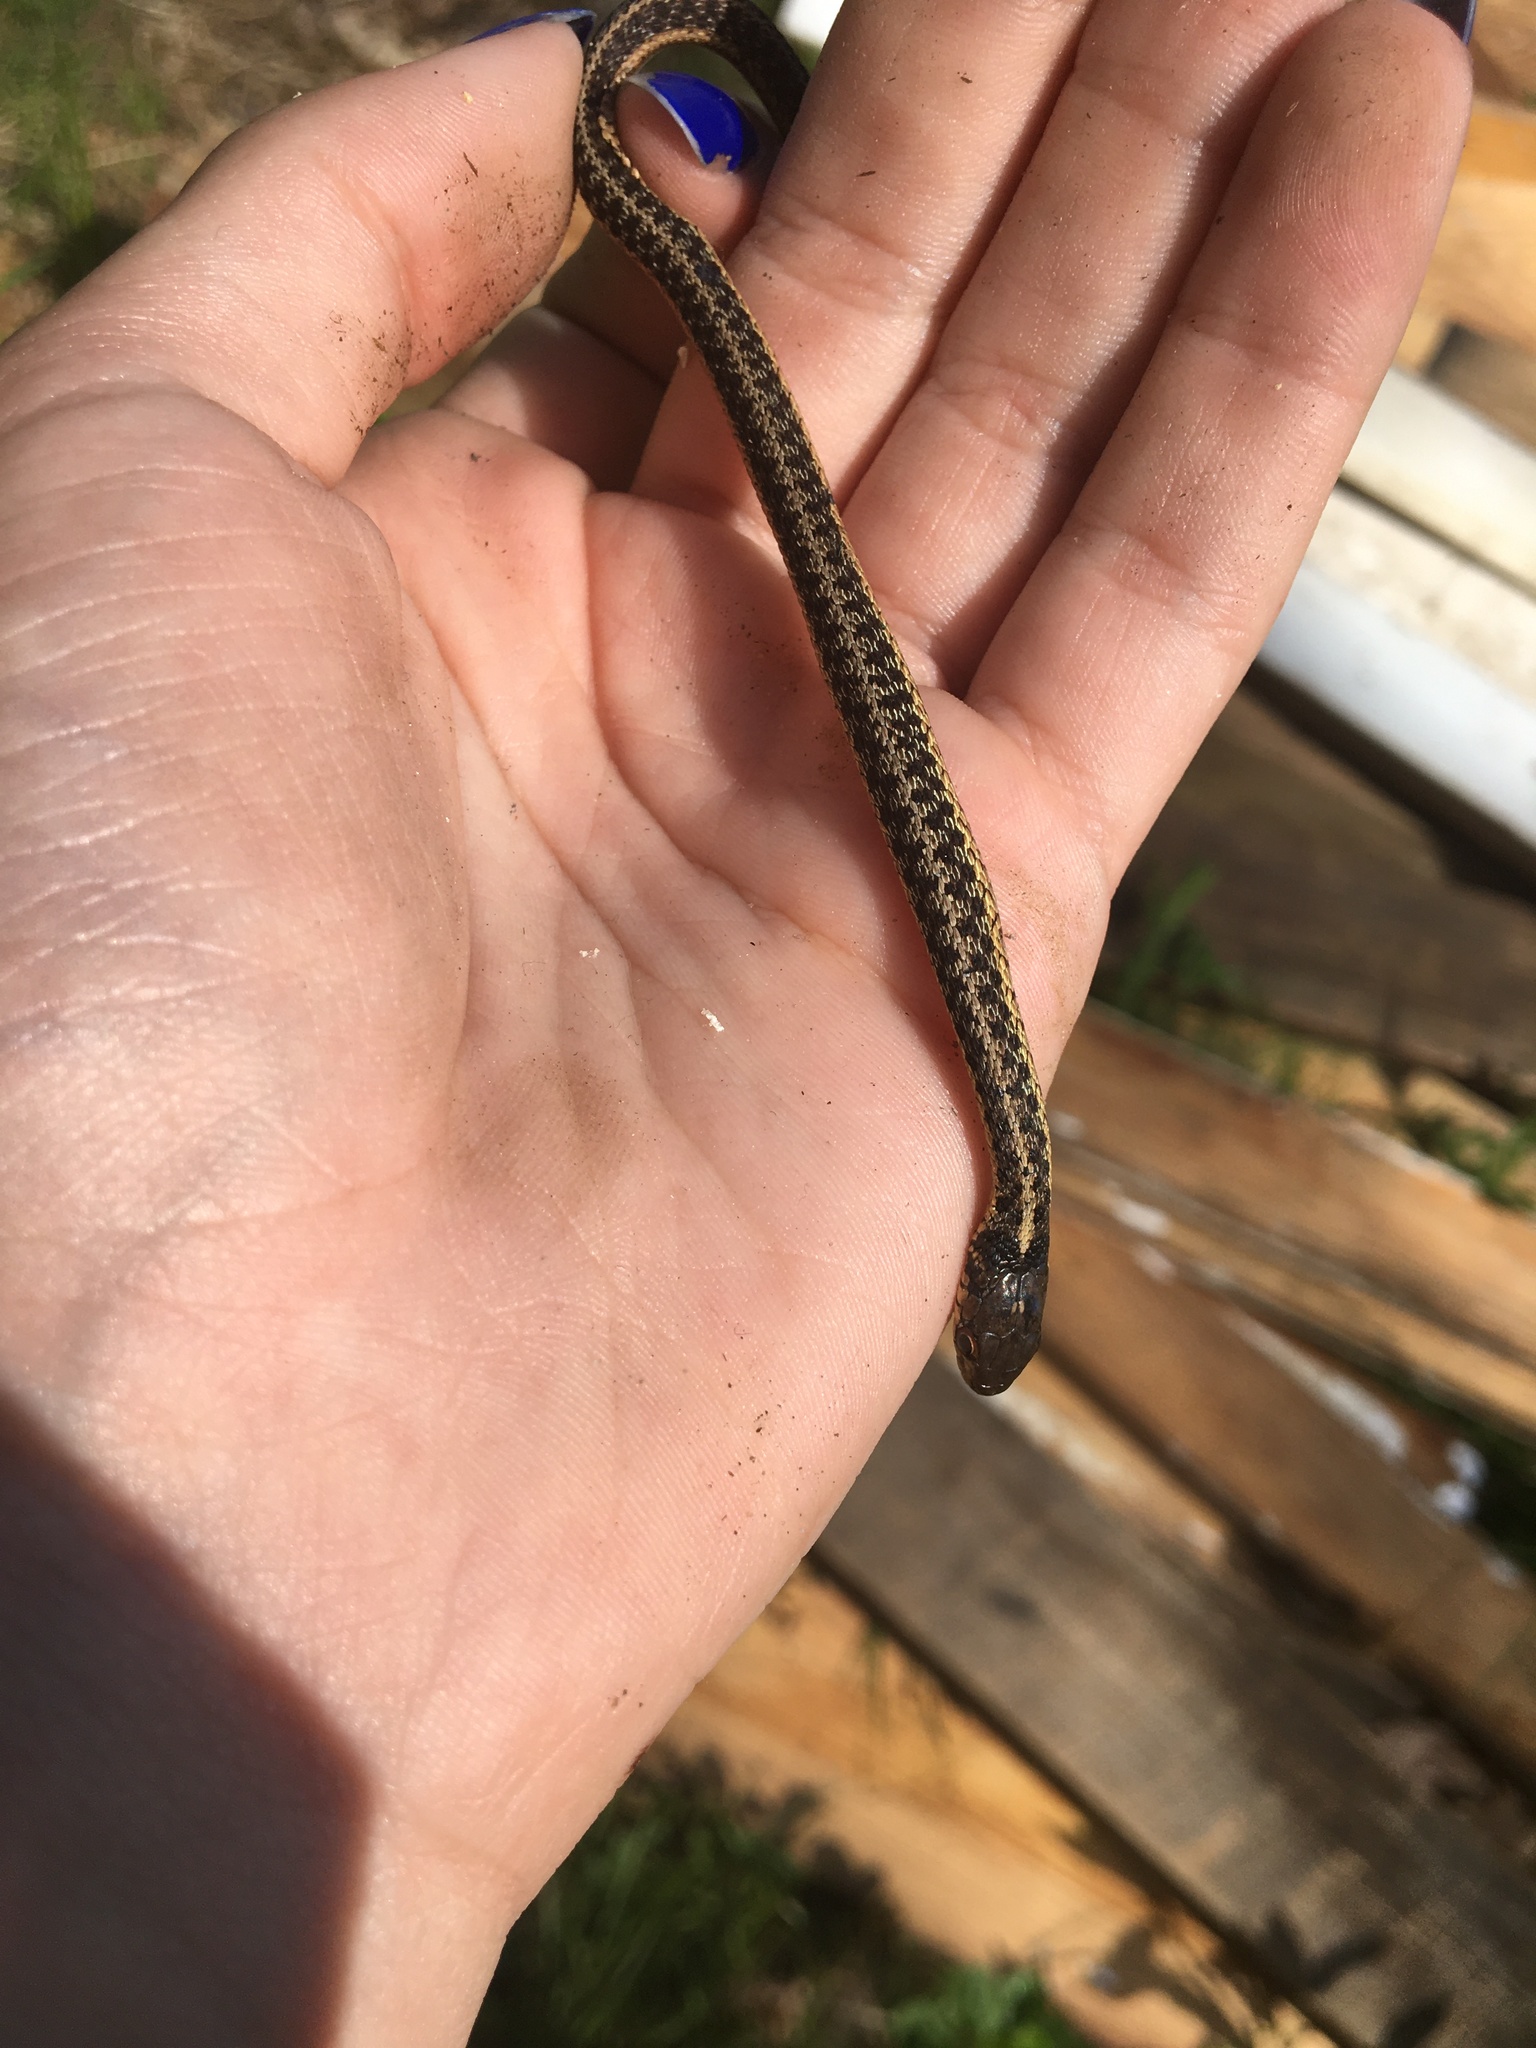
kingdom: Animalia
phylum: Chordata
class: Squamata
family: Colubridae
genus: Thamnophis
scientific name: Thamnophis sirtalis
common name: Common garter snake
